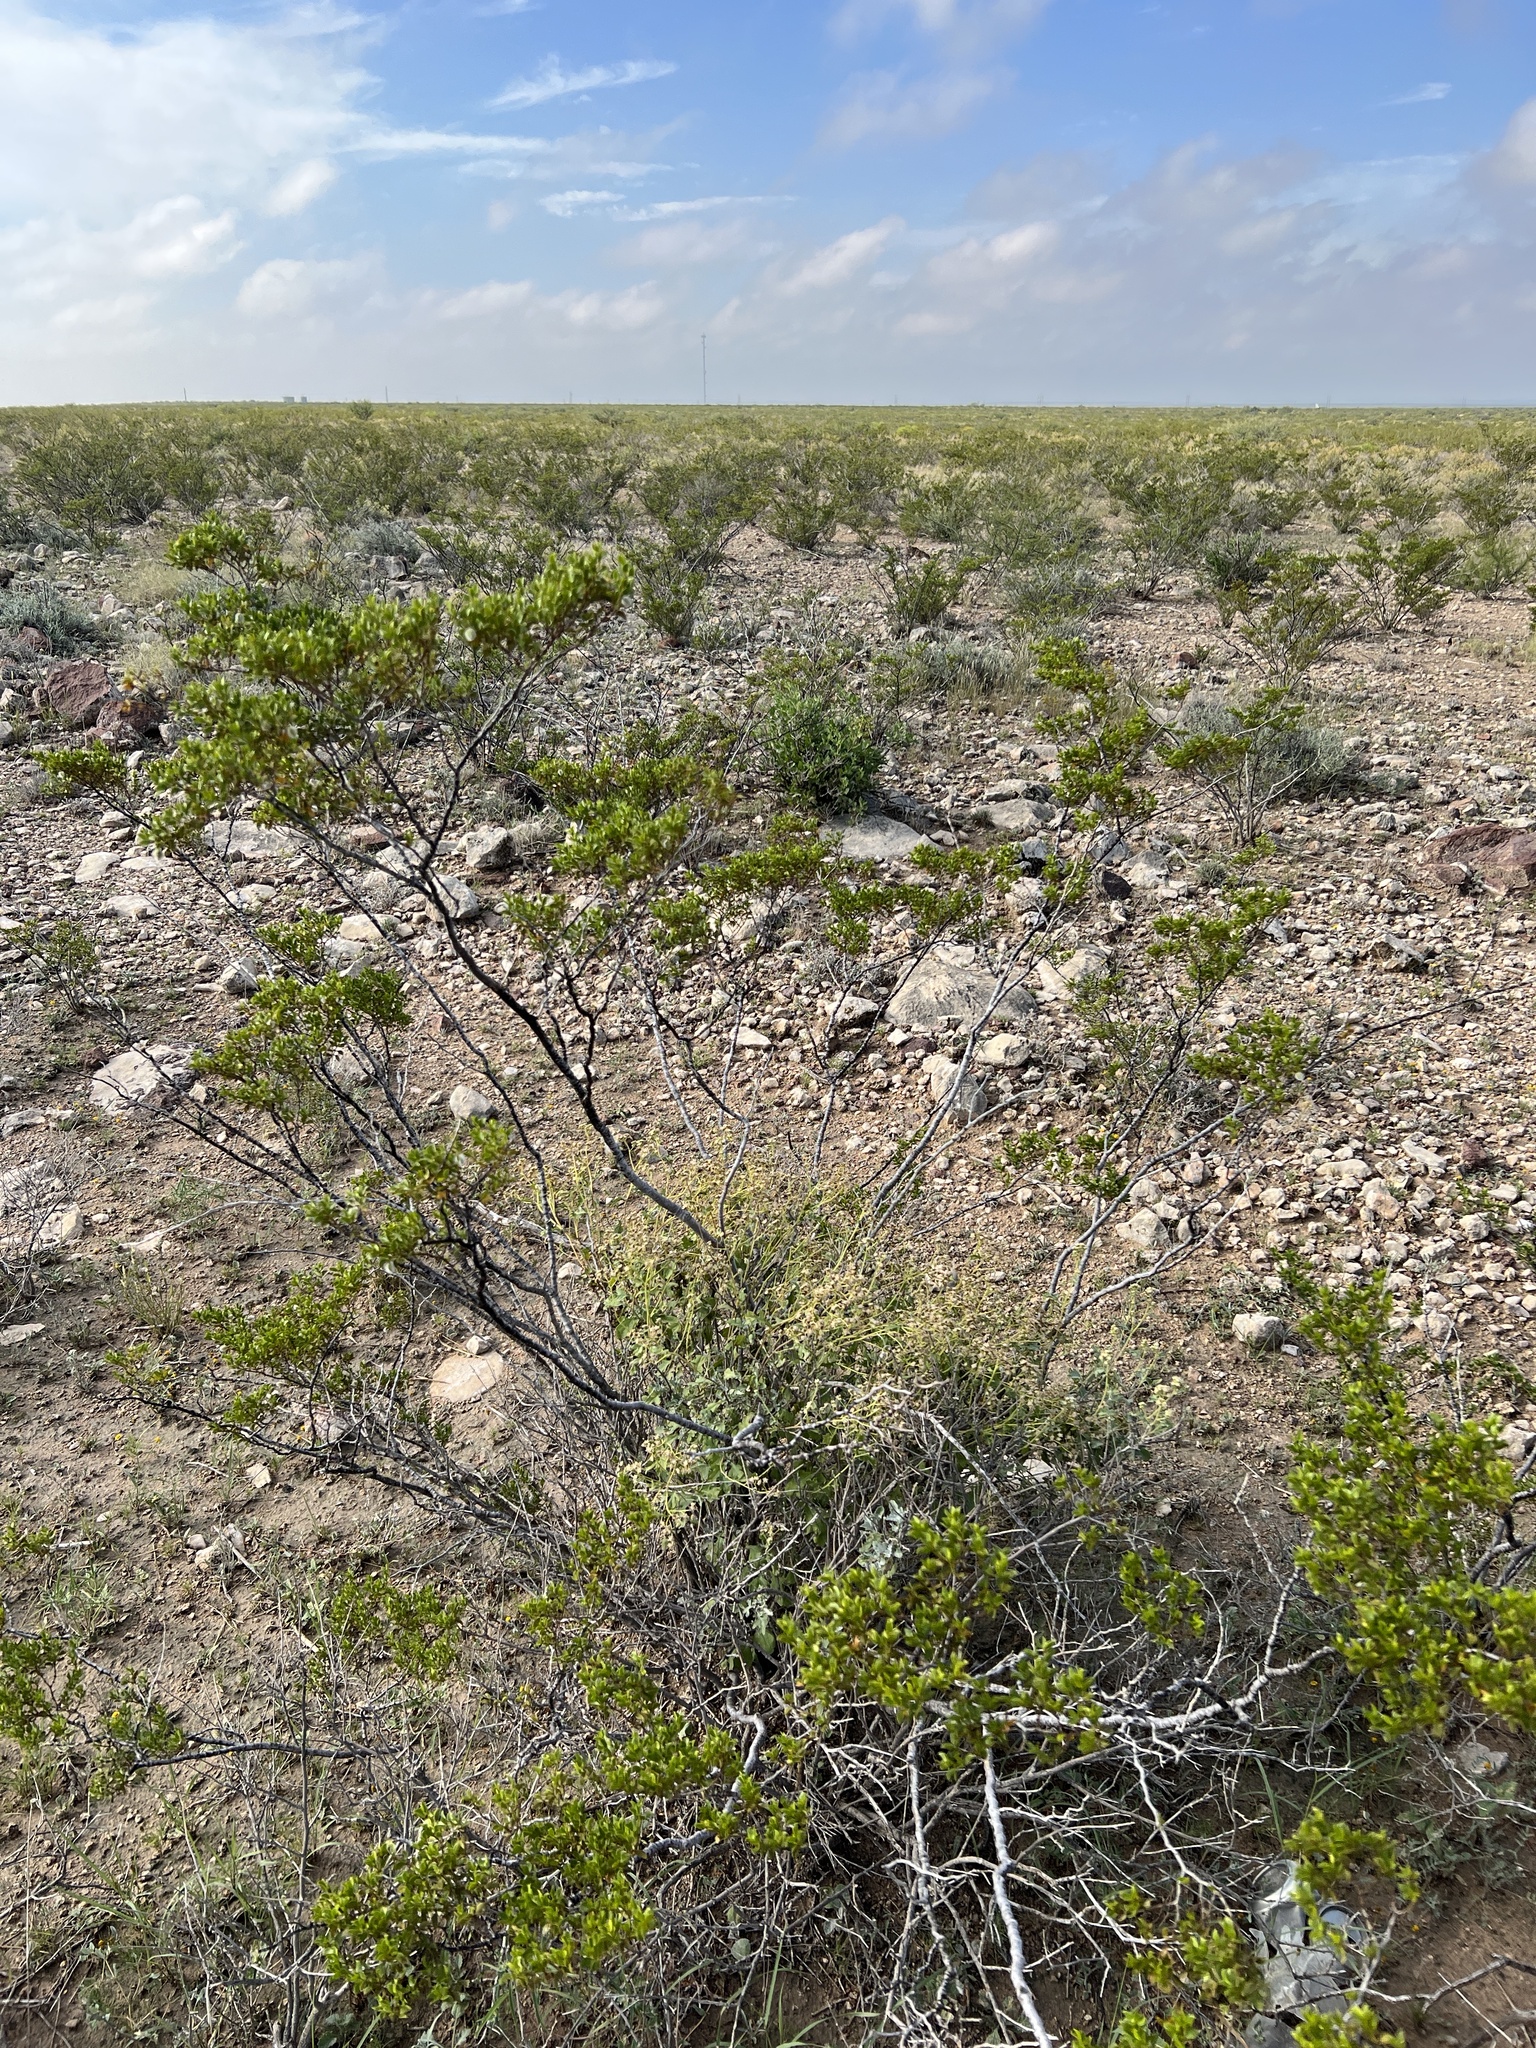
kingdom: Plantae
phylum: Tracheophyta
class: Magnoliopsida
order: Zygophyllales
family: Zygophyllaceae
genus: Larrea
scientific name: Larrea tridentata
